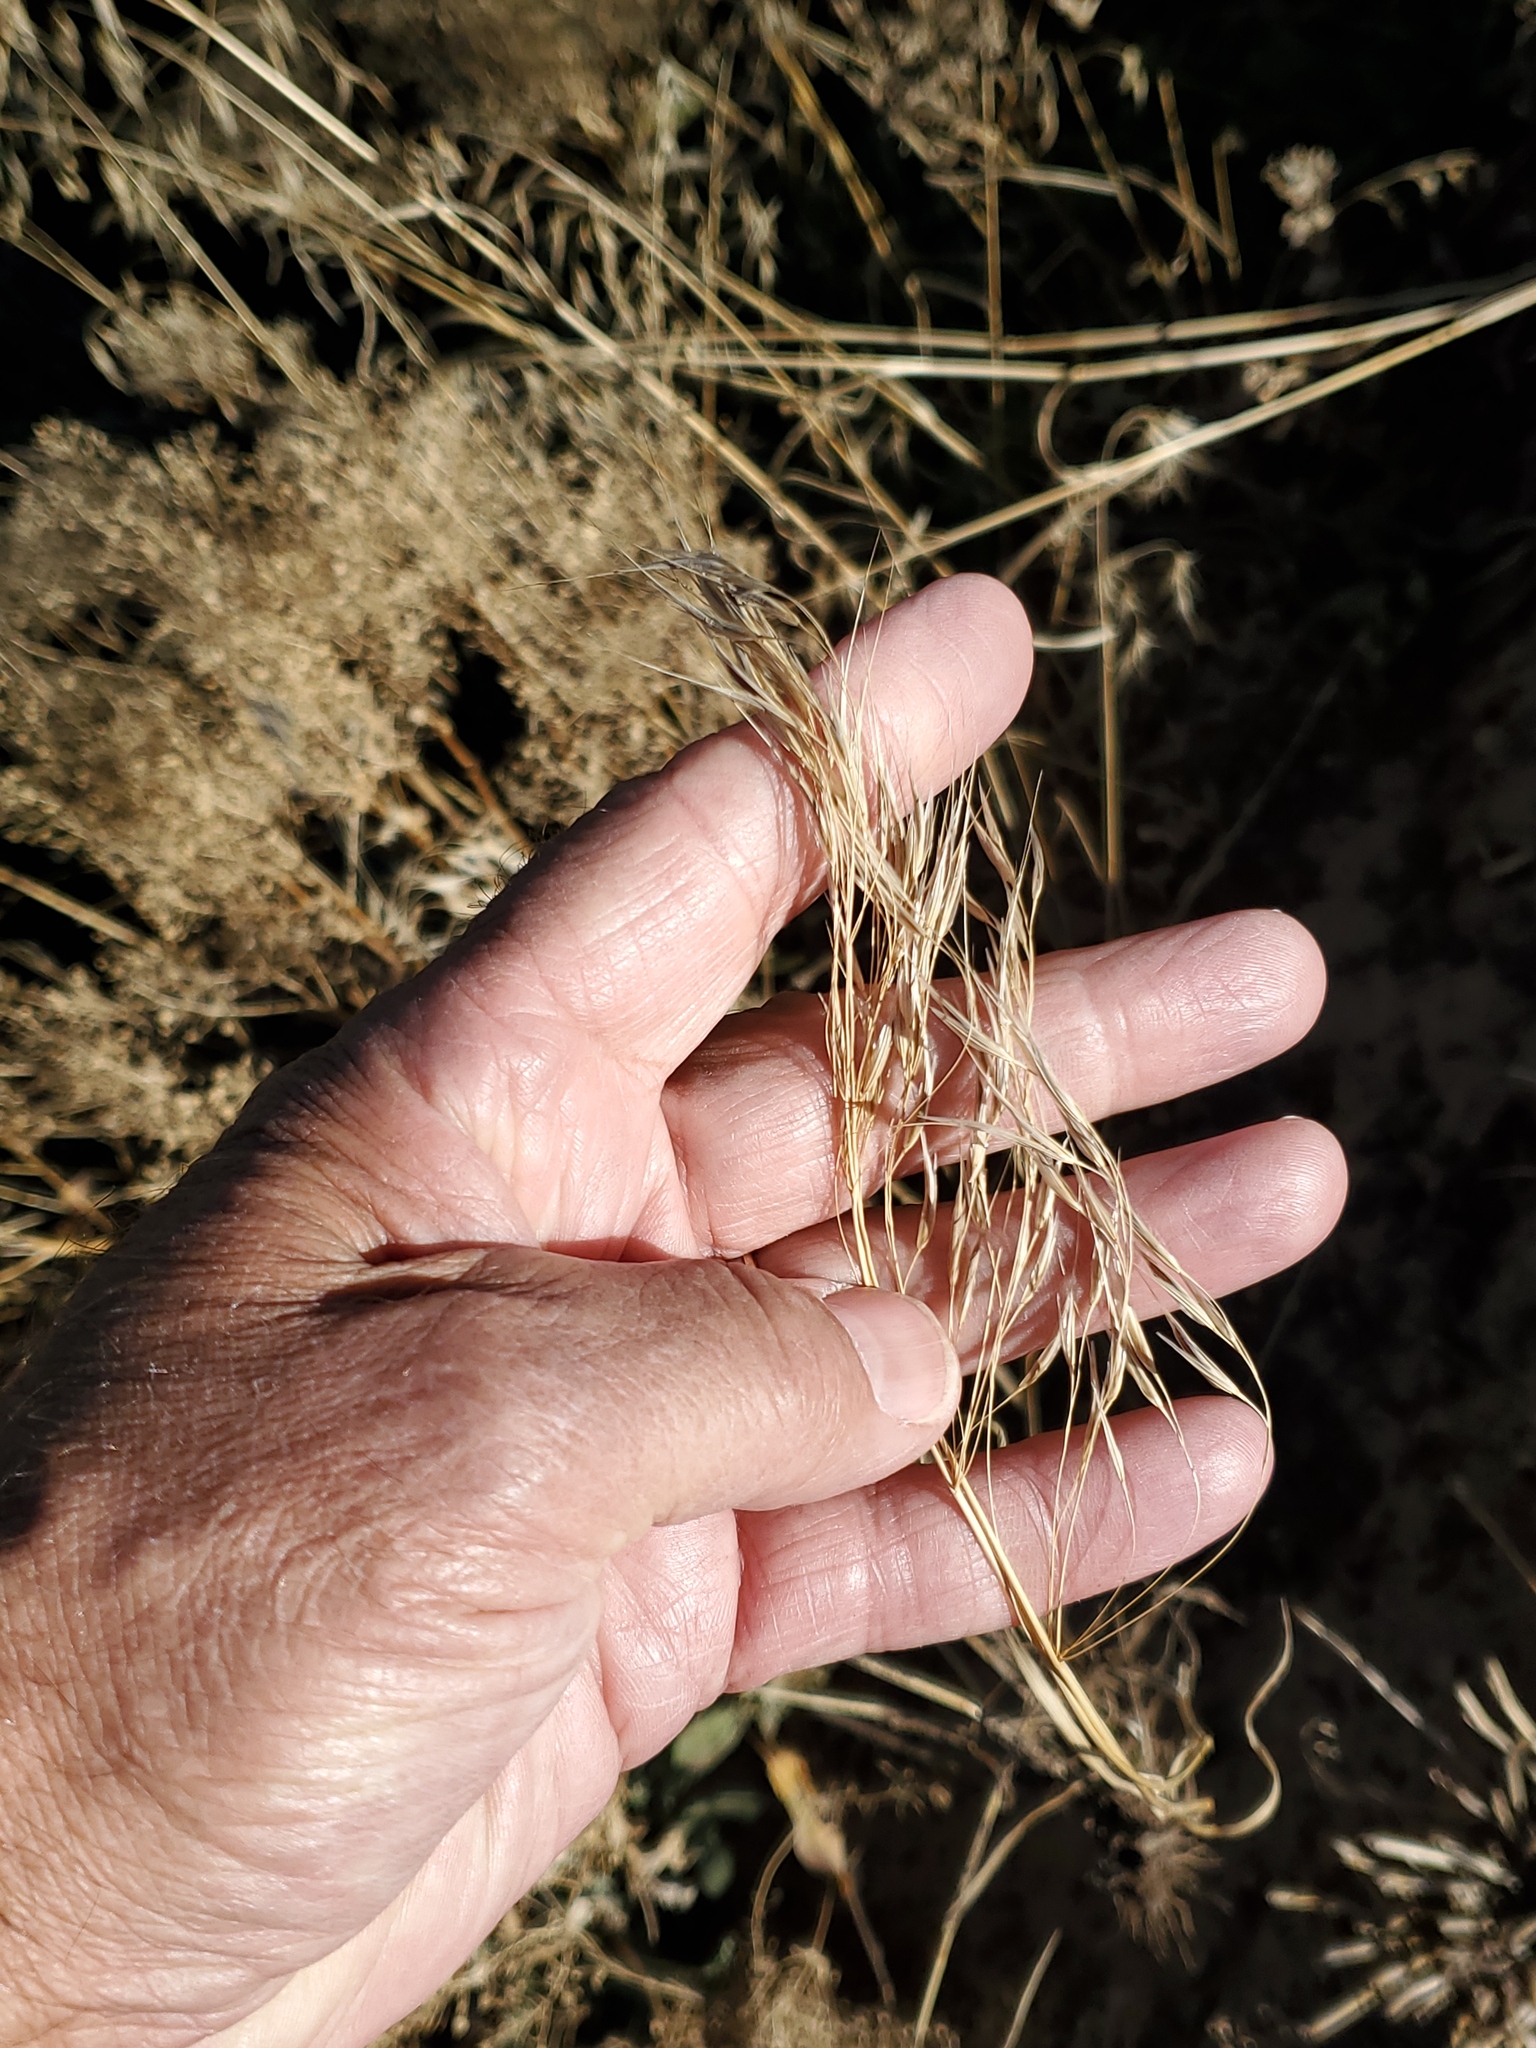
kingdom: Plantae
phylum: Tracheophyta
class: Liliopsida
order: Poales
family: Poaceae
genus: Bromus
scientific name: Bromus tectorum
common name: Cheatgrass
